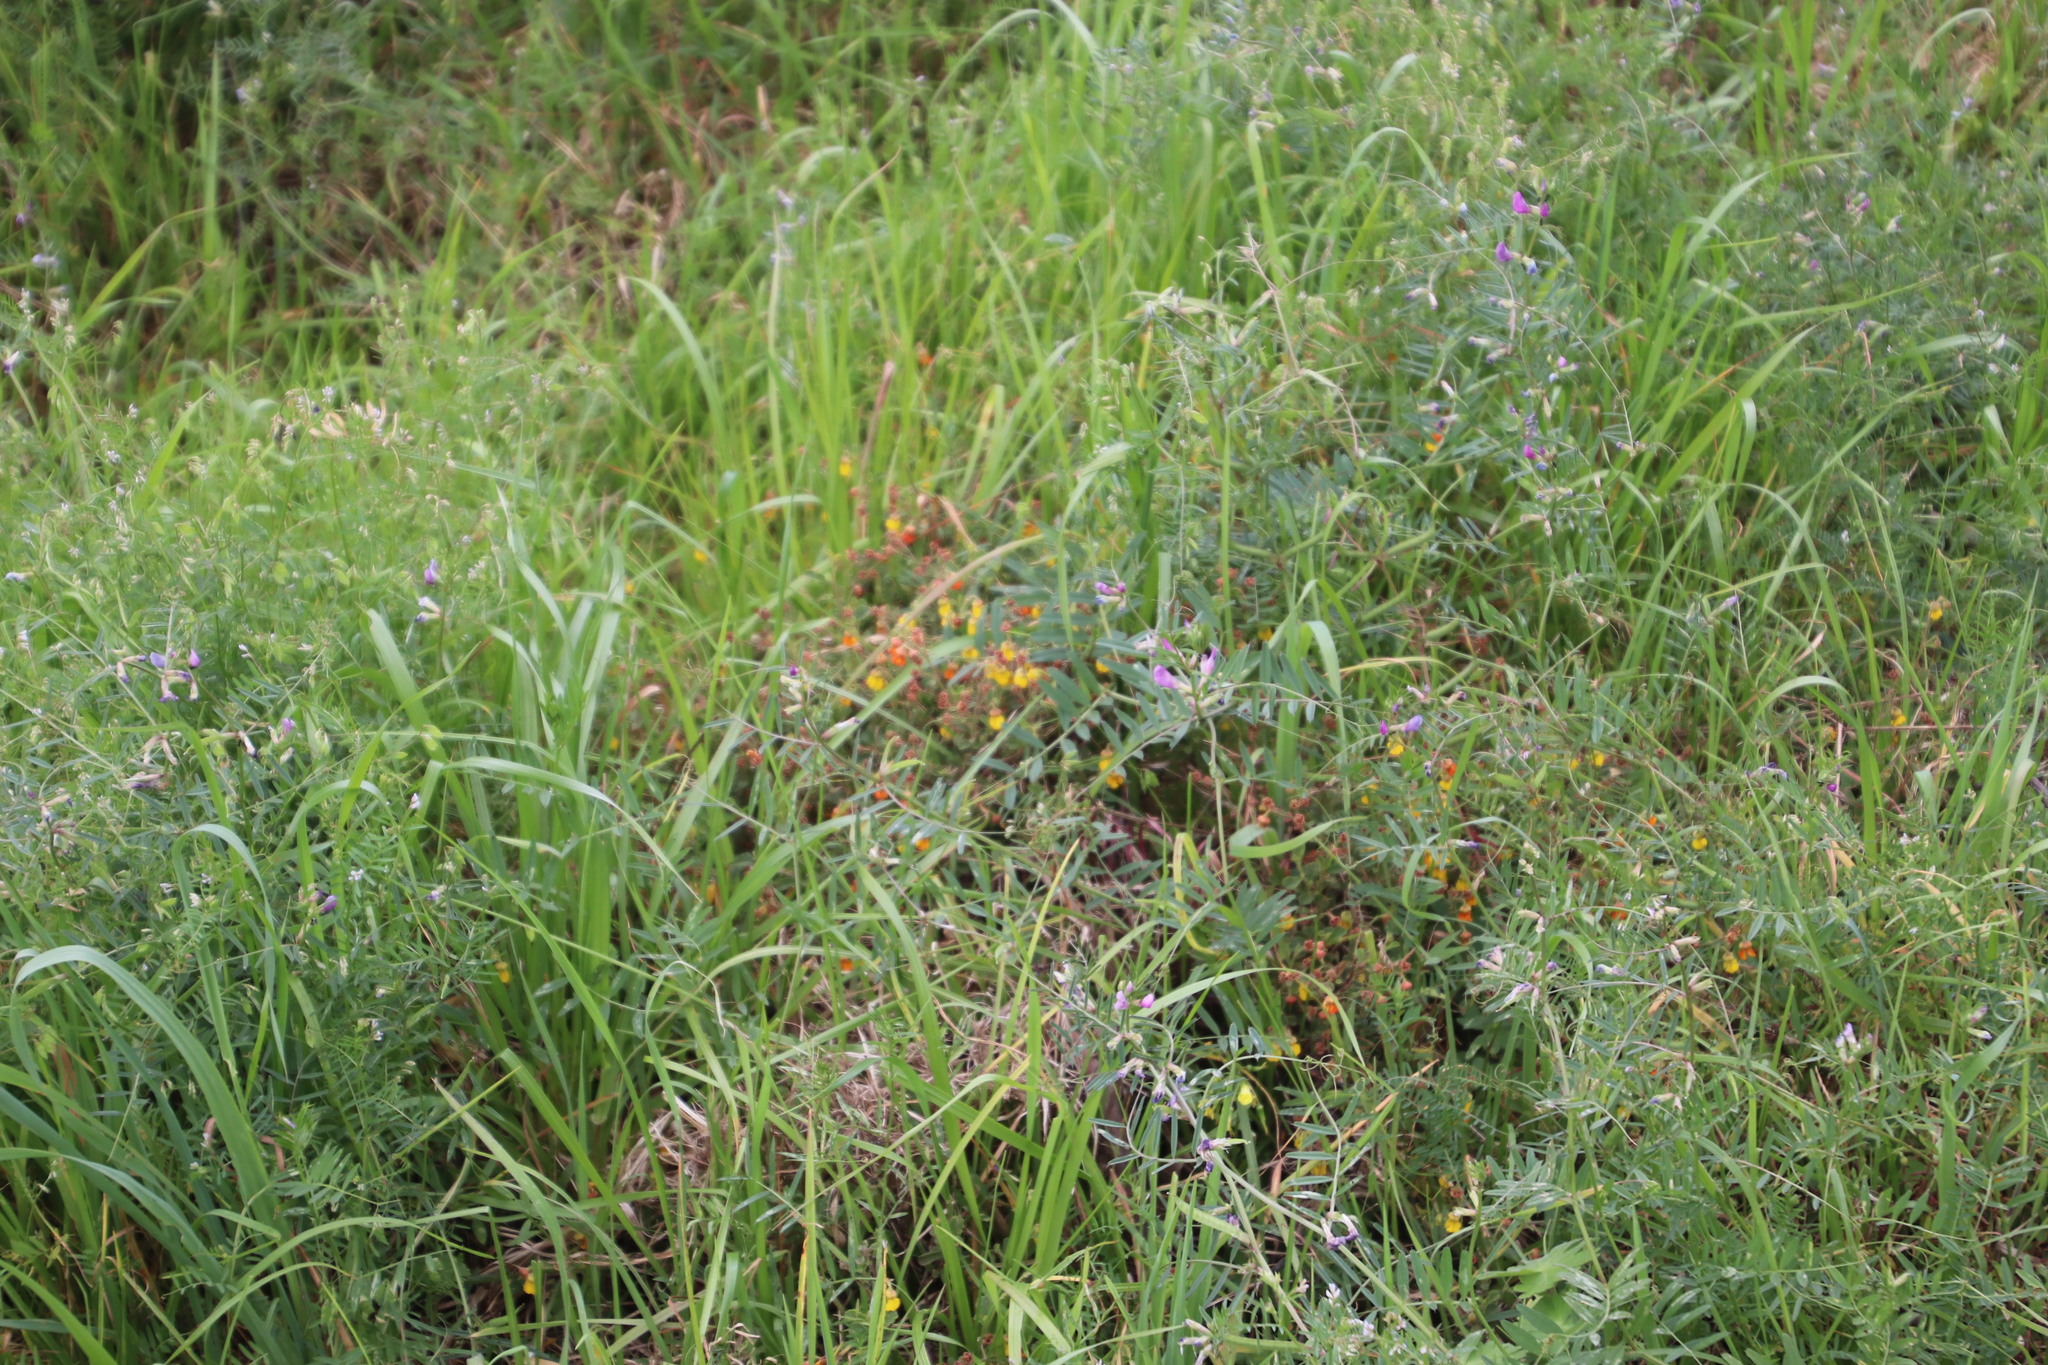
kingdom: Plantae
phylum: Tracheophyta
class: Magnoliopsida
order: Malvales
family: Malvaceae
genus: Hermannia
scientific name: Hermannia multiflora
